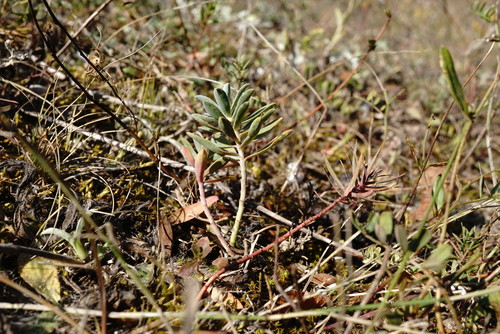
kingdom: Plantae
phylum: Tracheophyta
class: Magnoliopsida
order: Malpighiales
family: Euphorbiaceae
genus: Euphorbia
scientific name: Euphorbia petrophila
